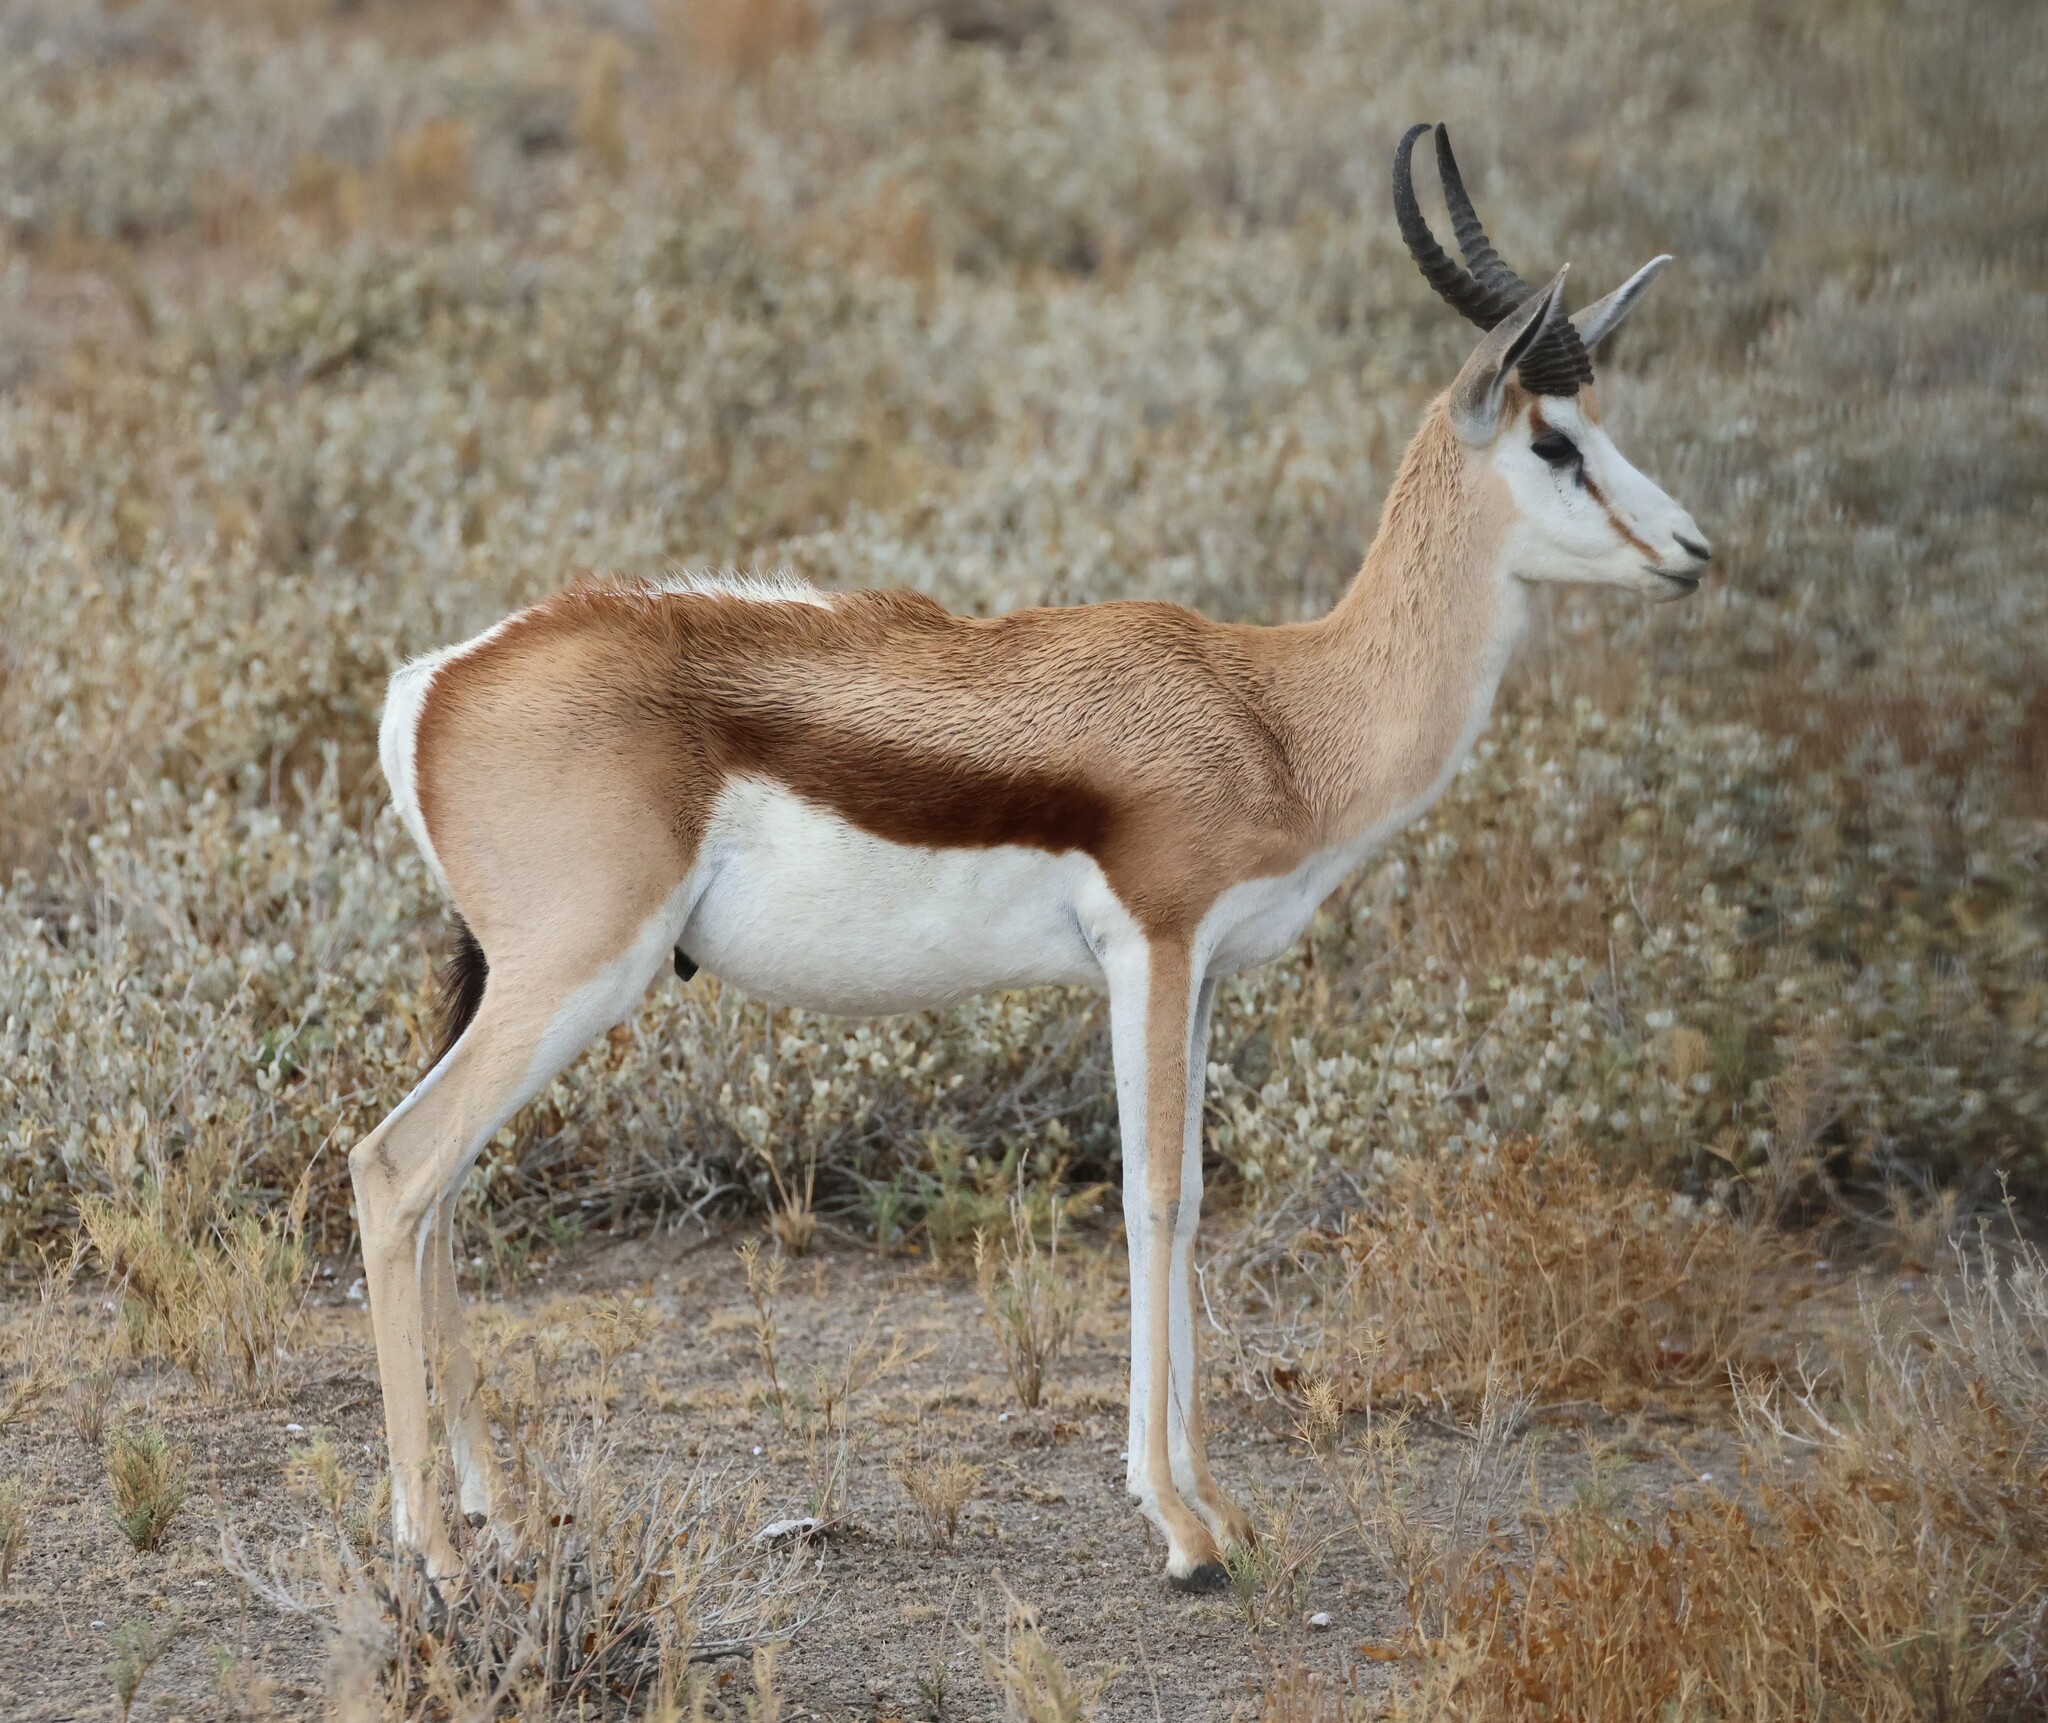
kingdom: Animalia
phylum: Chordata
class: Mammalia
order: Artiodactyla
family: Bovidae
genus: Antidorcas
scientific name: Antidorcas marsupialis
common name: Springbok
